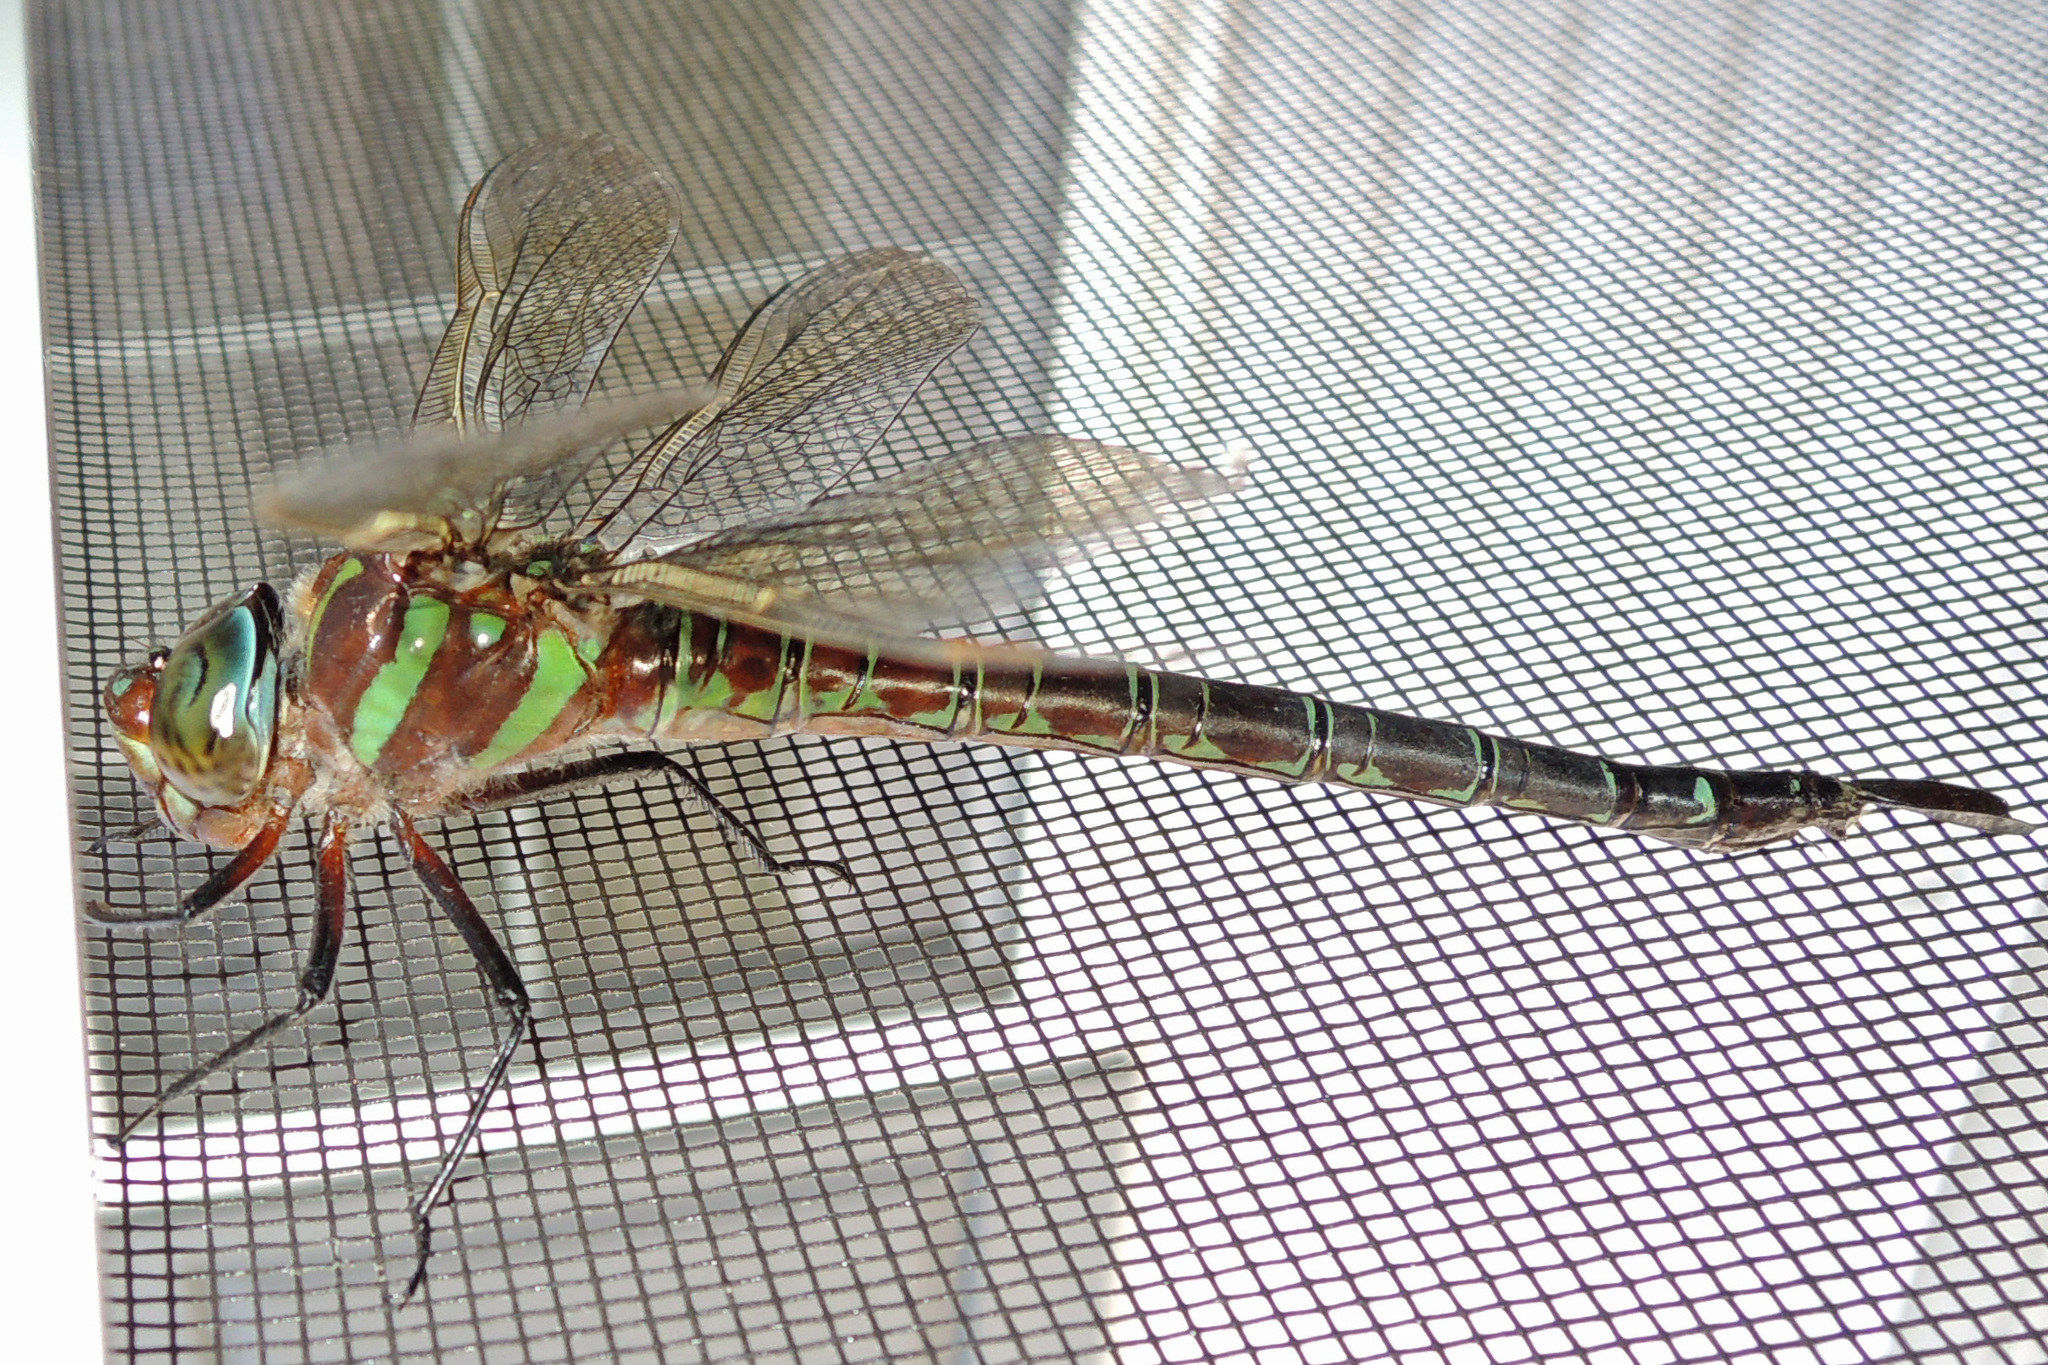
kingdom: Animalia
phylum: Arthropoda
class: Insecta
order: Odonata
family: Aeshnidae
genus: Epiaeschna
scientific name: Epiaeschna heros
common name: Swamp darner
